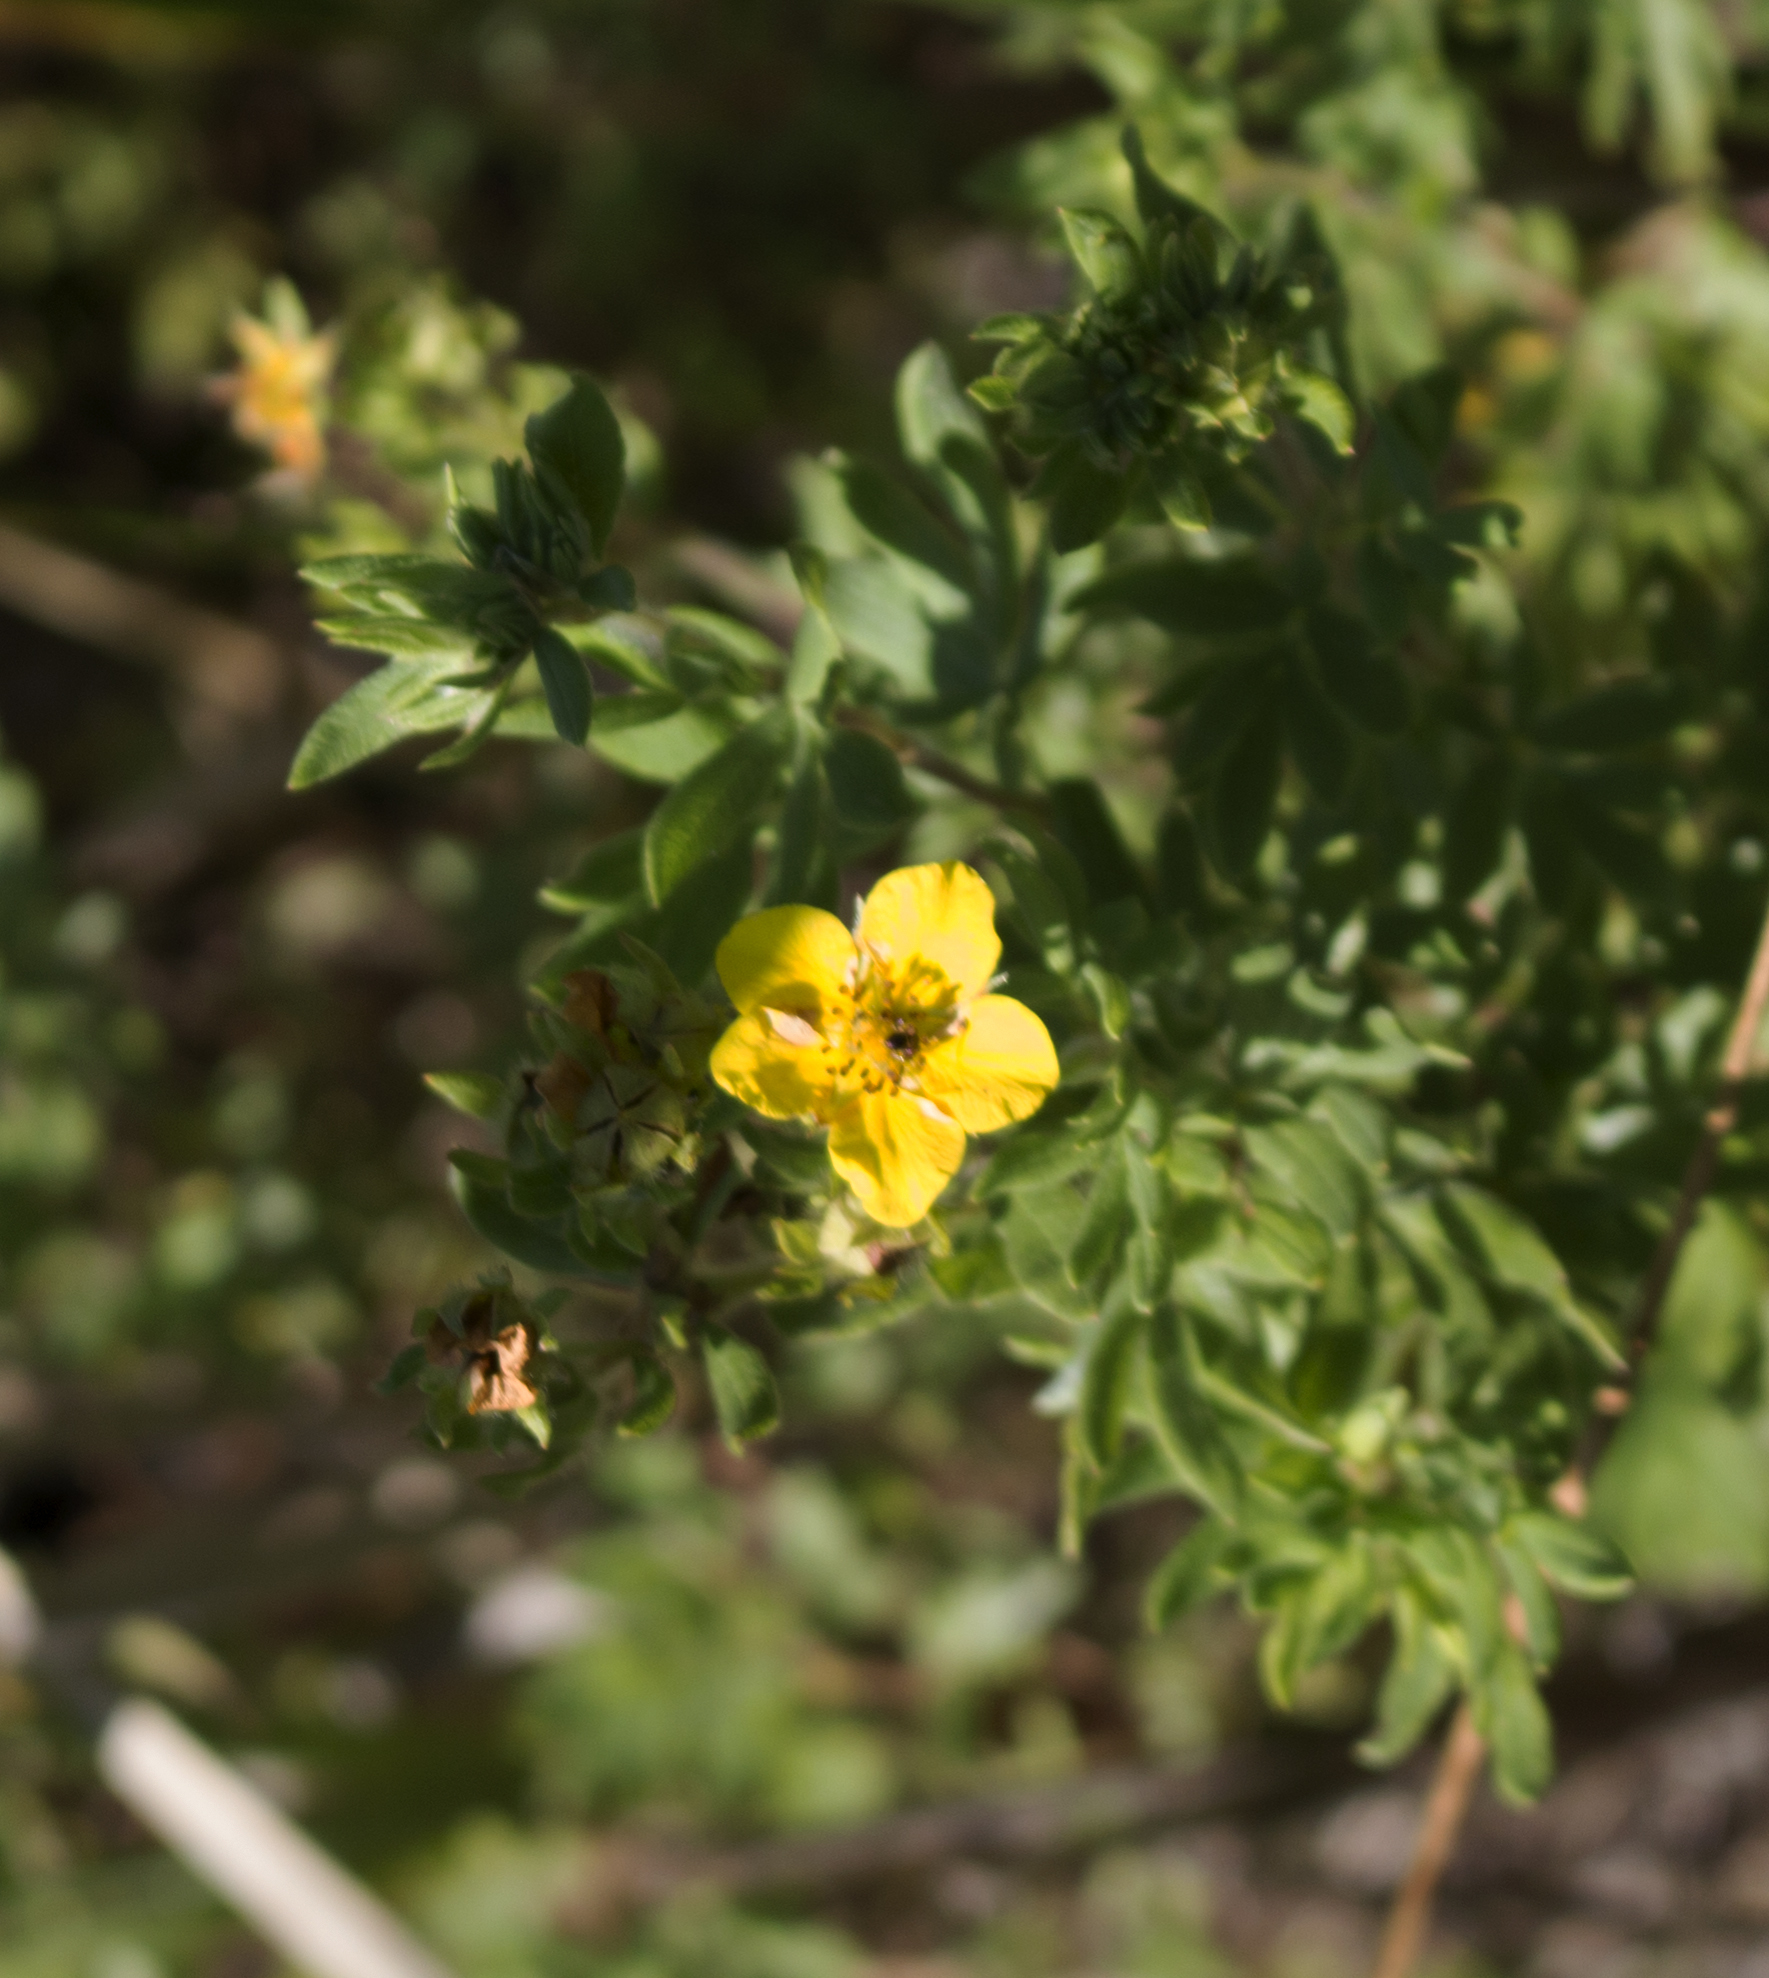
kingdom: Plantae
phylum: Tracheophyta
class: Magnoliopsida
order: Rosales
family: Rosaceae
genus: Dasiphora
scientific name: Dasiphora fruticosa
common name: Shrubby cinquefoil
